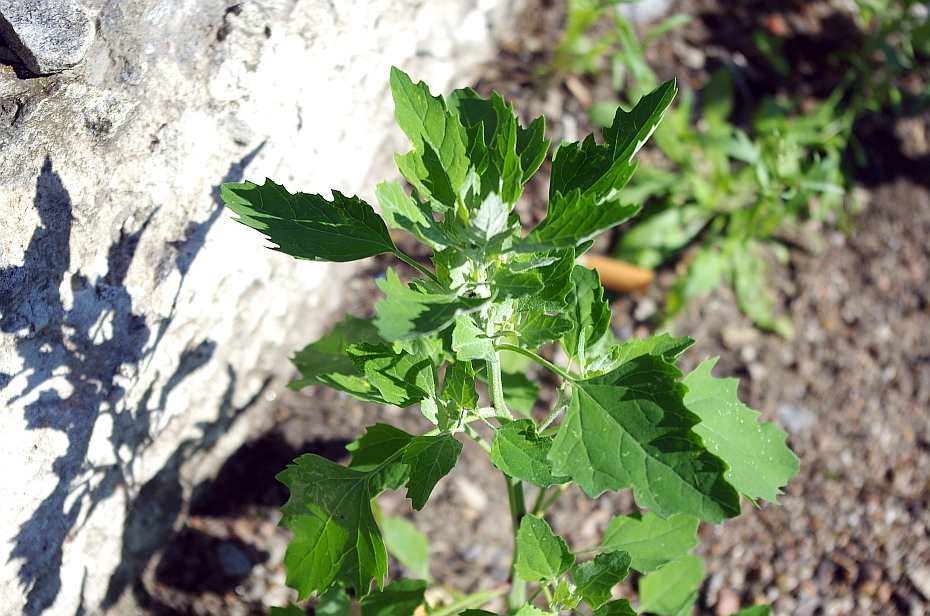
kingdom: Plantae
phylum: Tracheophyta
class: Magnoliopsida
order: Caryophyllales
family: Amaranthaceae
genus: Chenopodium
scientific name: Chenopodium album
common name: Fat-hen
